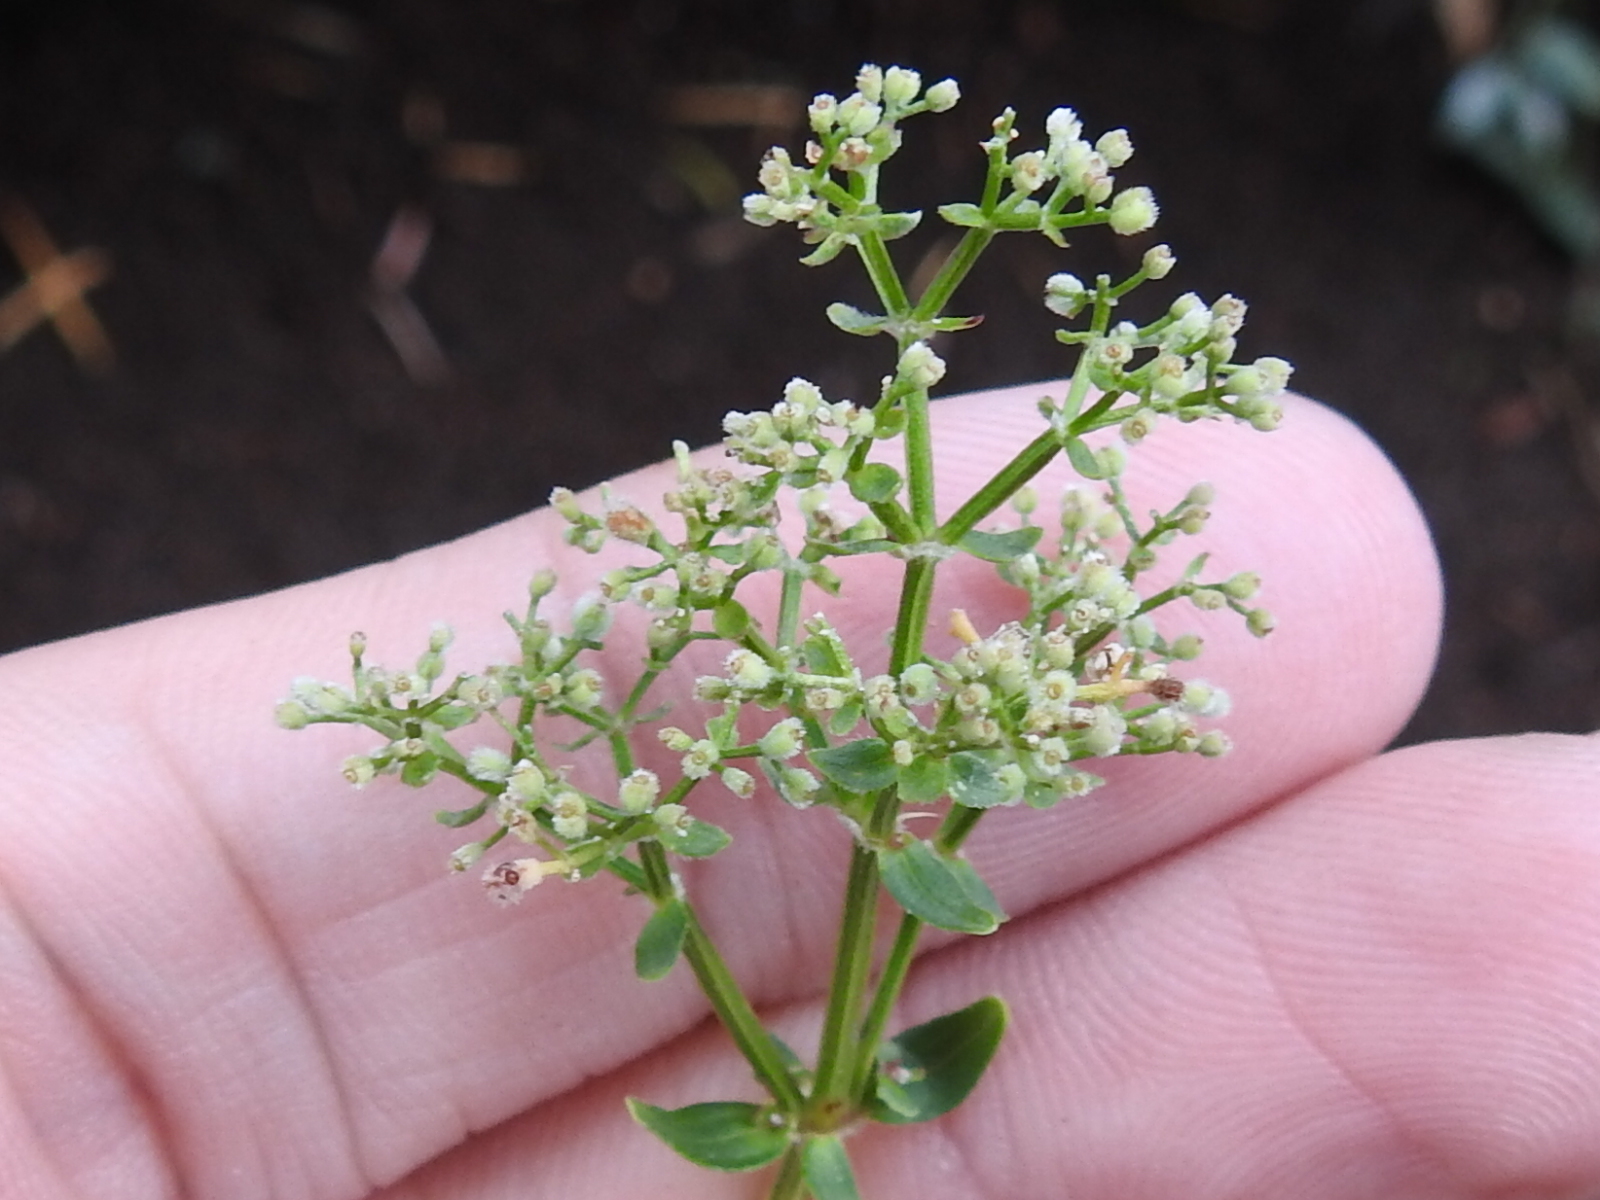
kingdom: Plantae
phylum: Tracheophyta
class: Magnoliopsida
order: Gentianales
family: Rubiaceae
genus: Galium
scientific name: Galium boreale
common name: Northern bedstraw
